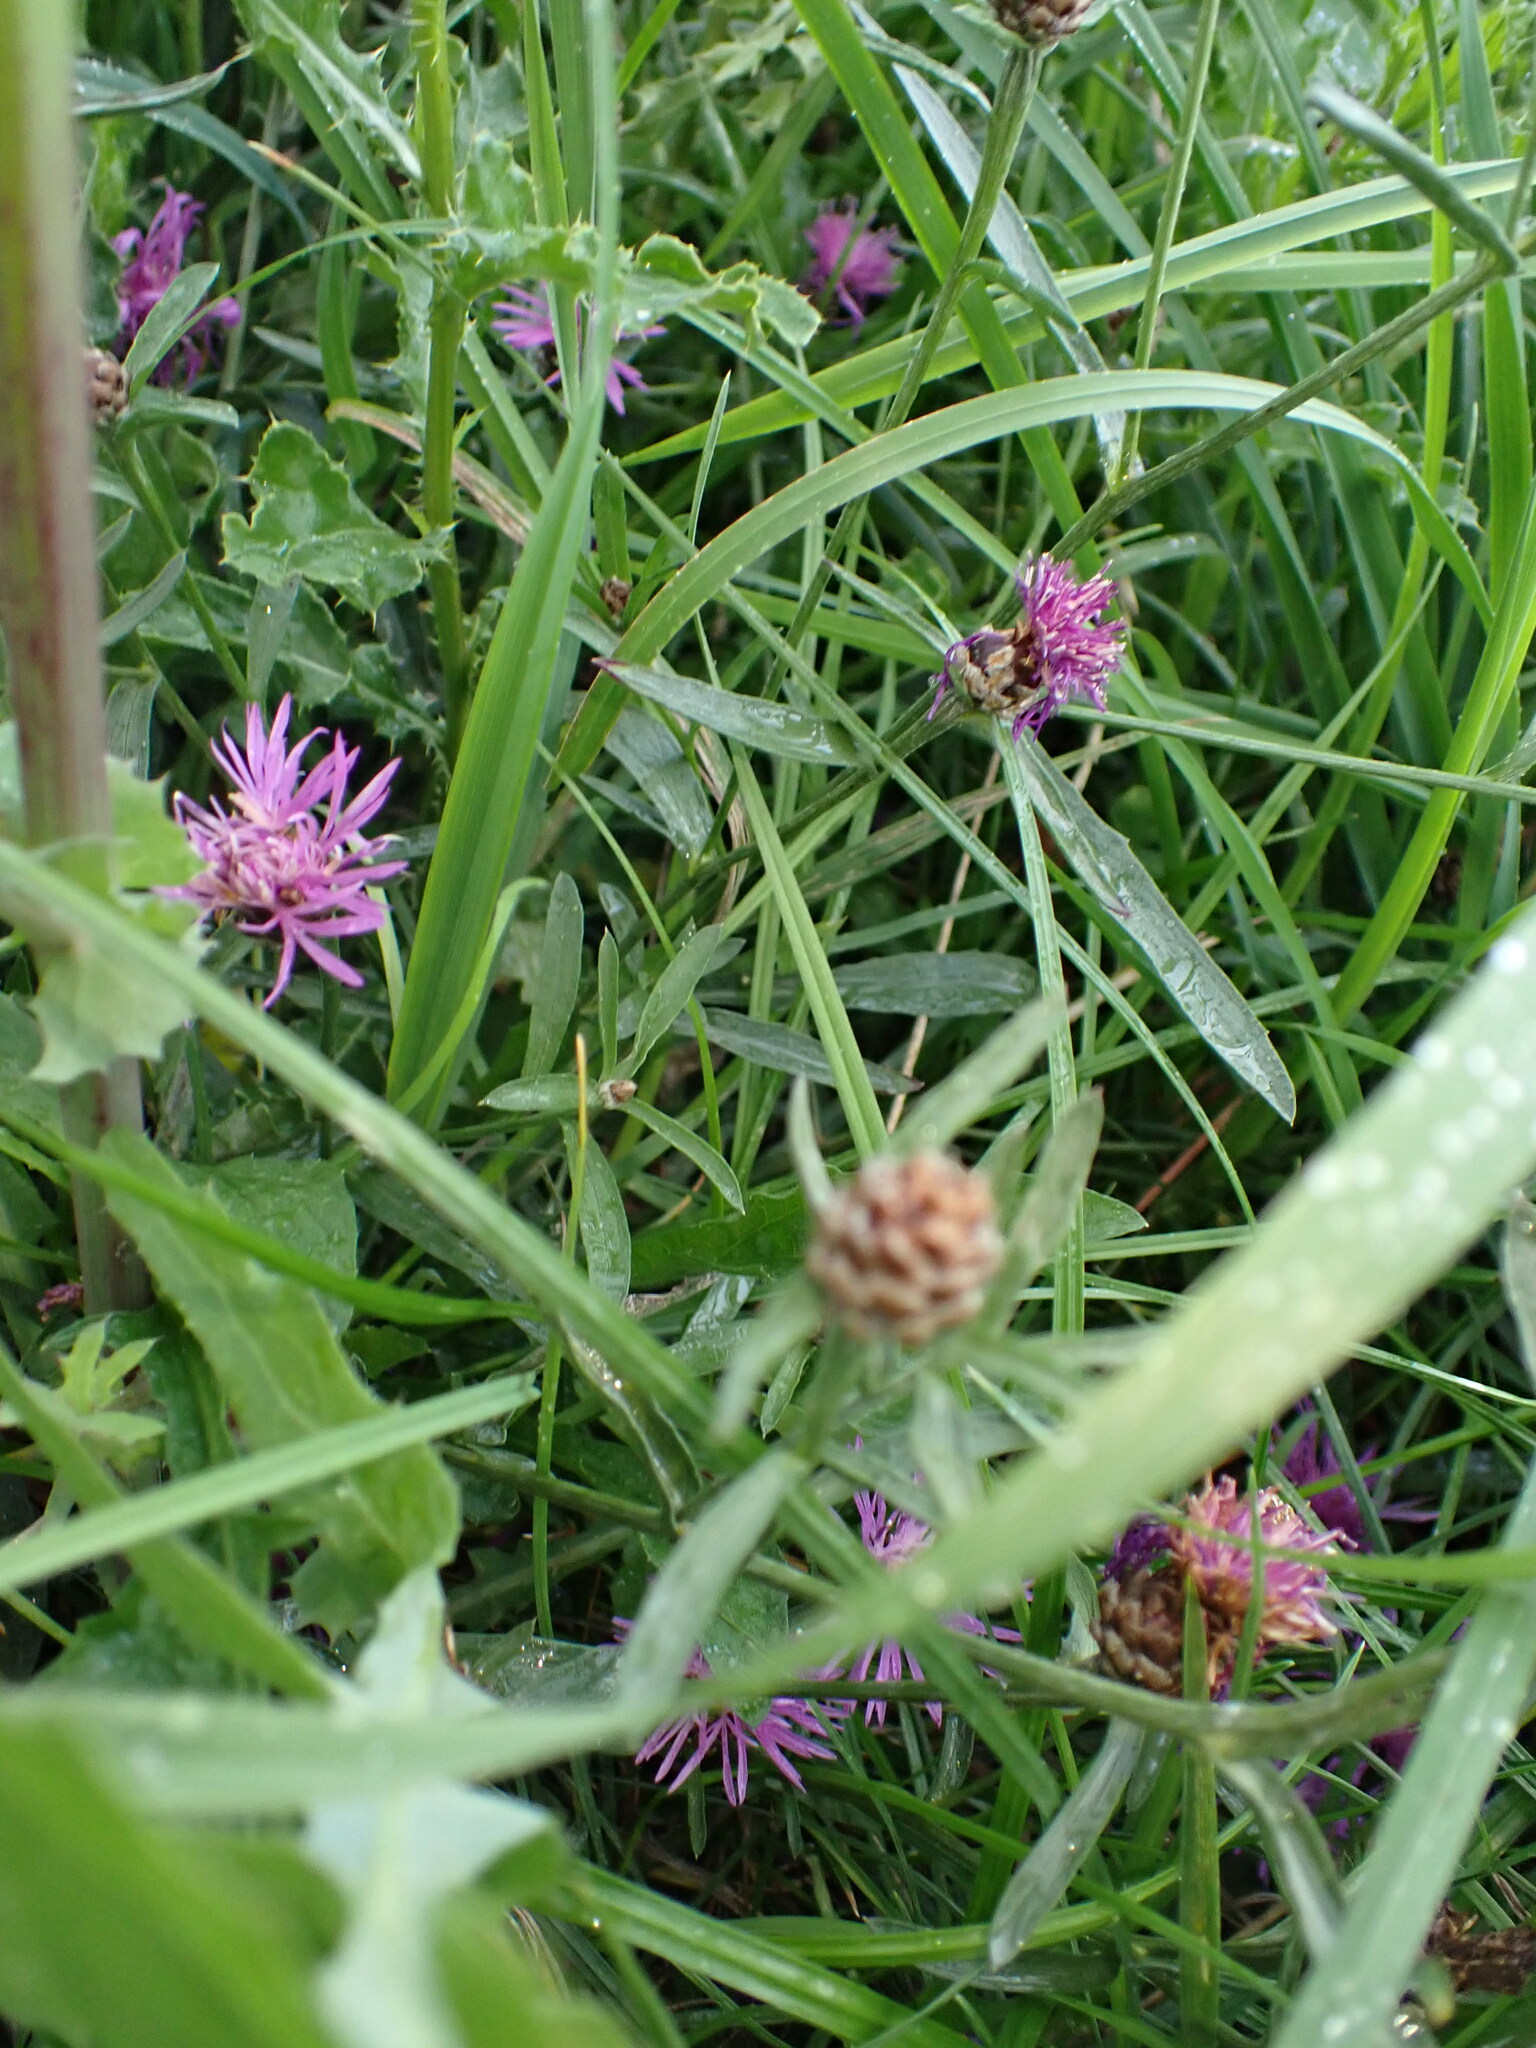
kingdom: Plantae
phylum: Tracheophyta
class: Magnoliopsida
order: Asterales
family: Asteraceae
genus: Centaurea
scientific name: Centaurea jacea
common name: Brown knapweed
